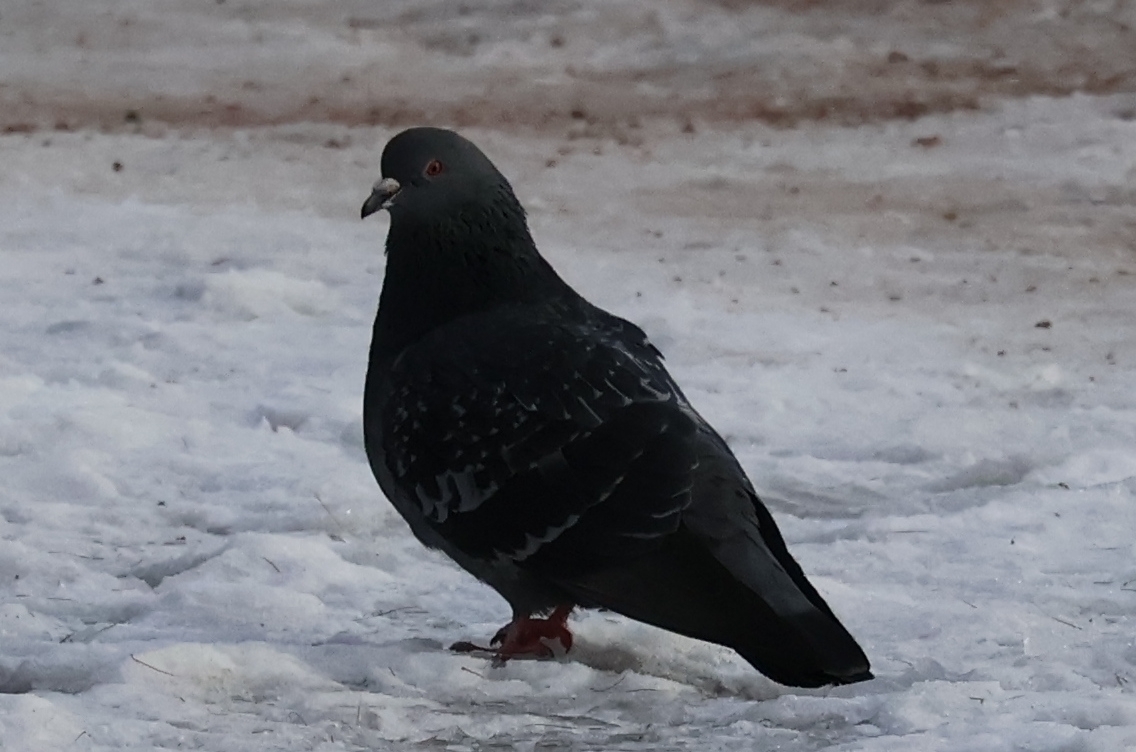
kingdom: Animalia
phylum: Chordata
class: Aves
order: Columbiformes
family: Columbidae
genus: Columba
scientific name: Columba livia
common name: Rock pigeon
